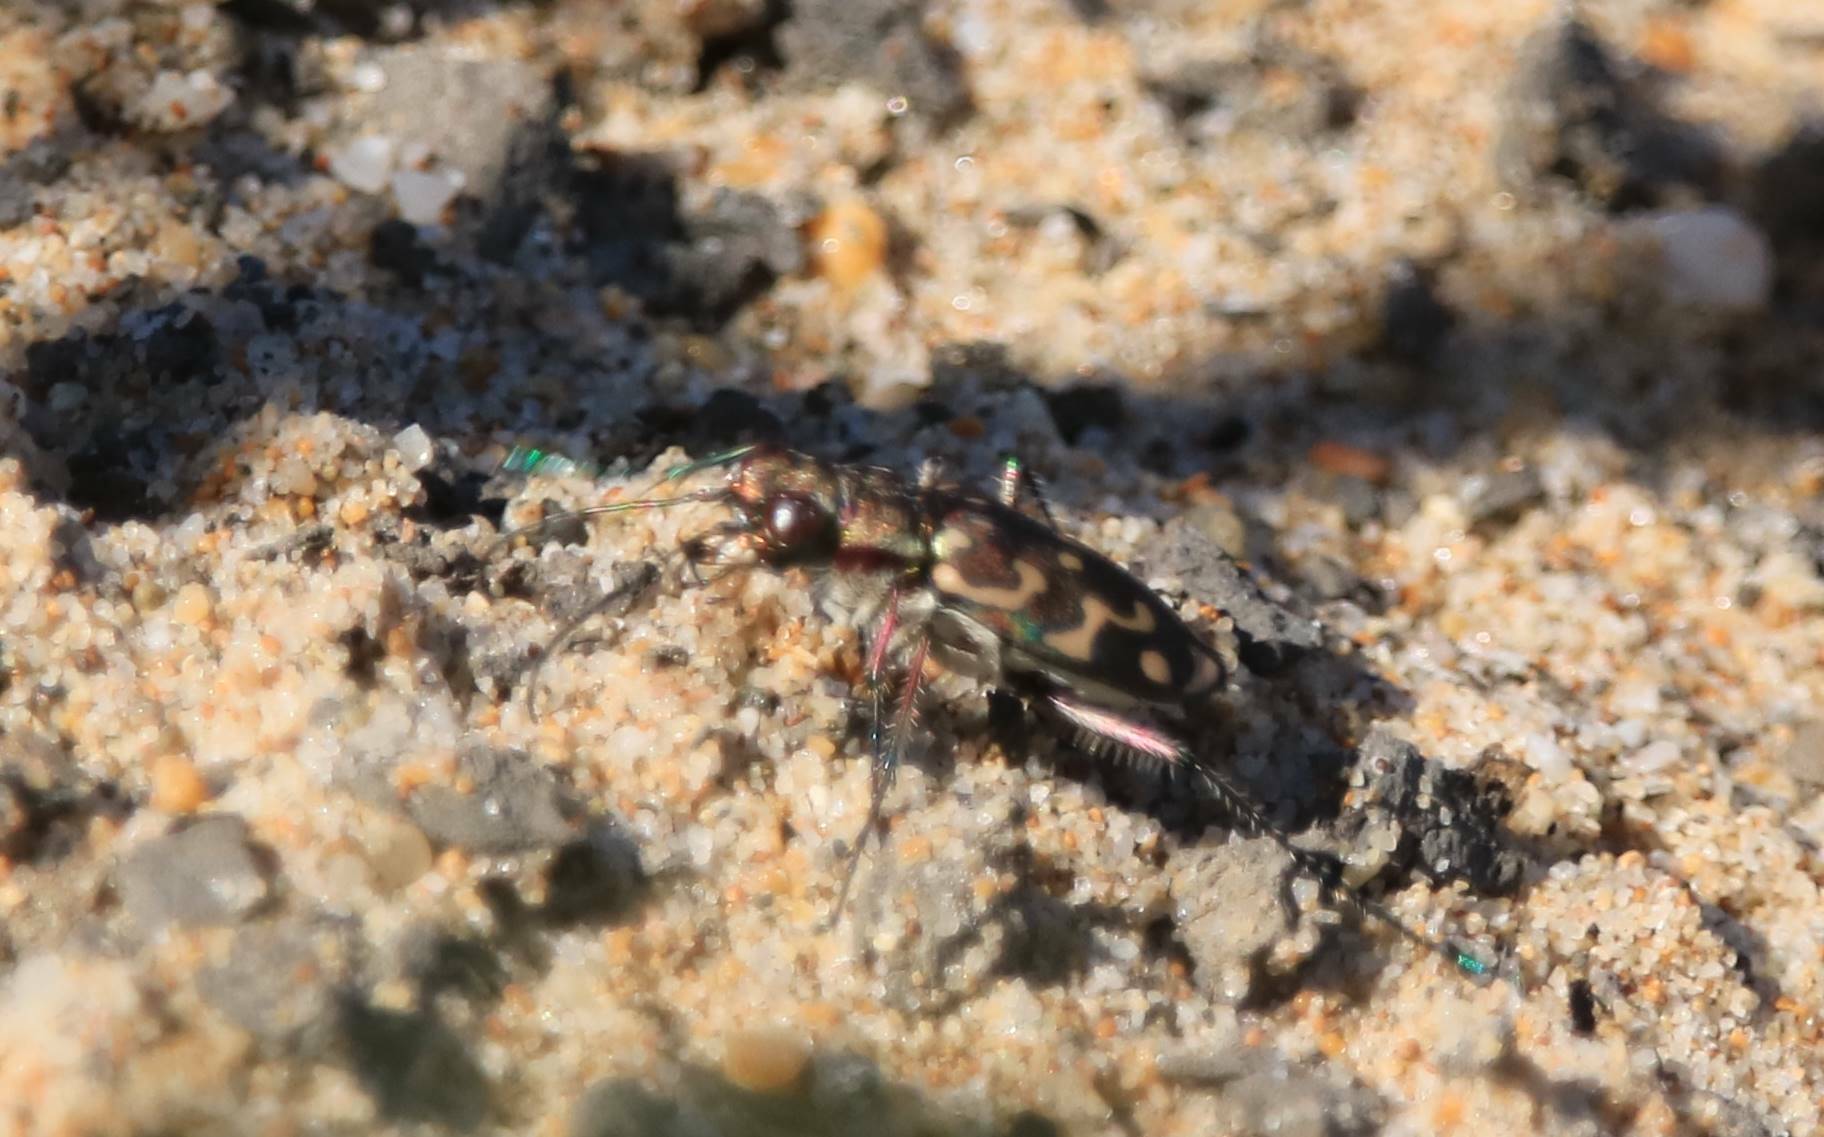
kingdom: Animalia
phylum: Arthropoda
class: Insecta
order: Coleoptera
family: Carabidae
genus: Lophyra
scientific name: Lophyra flexuosa
